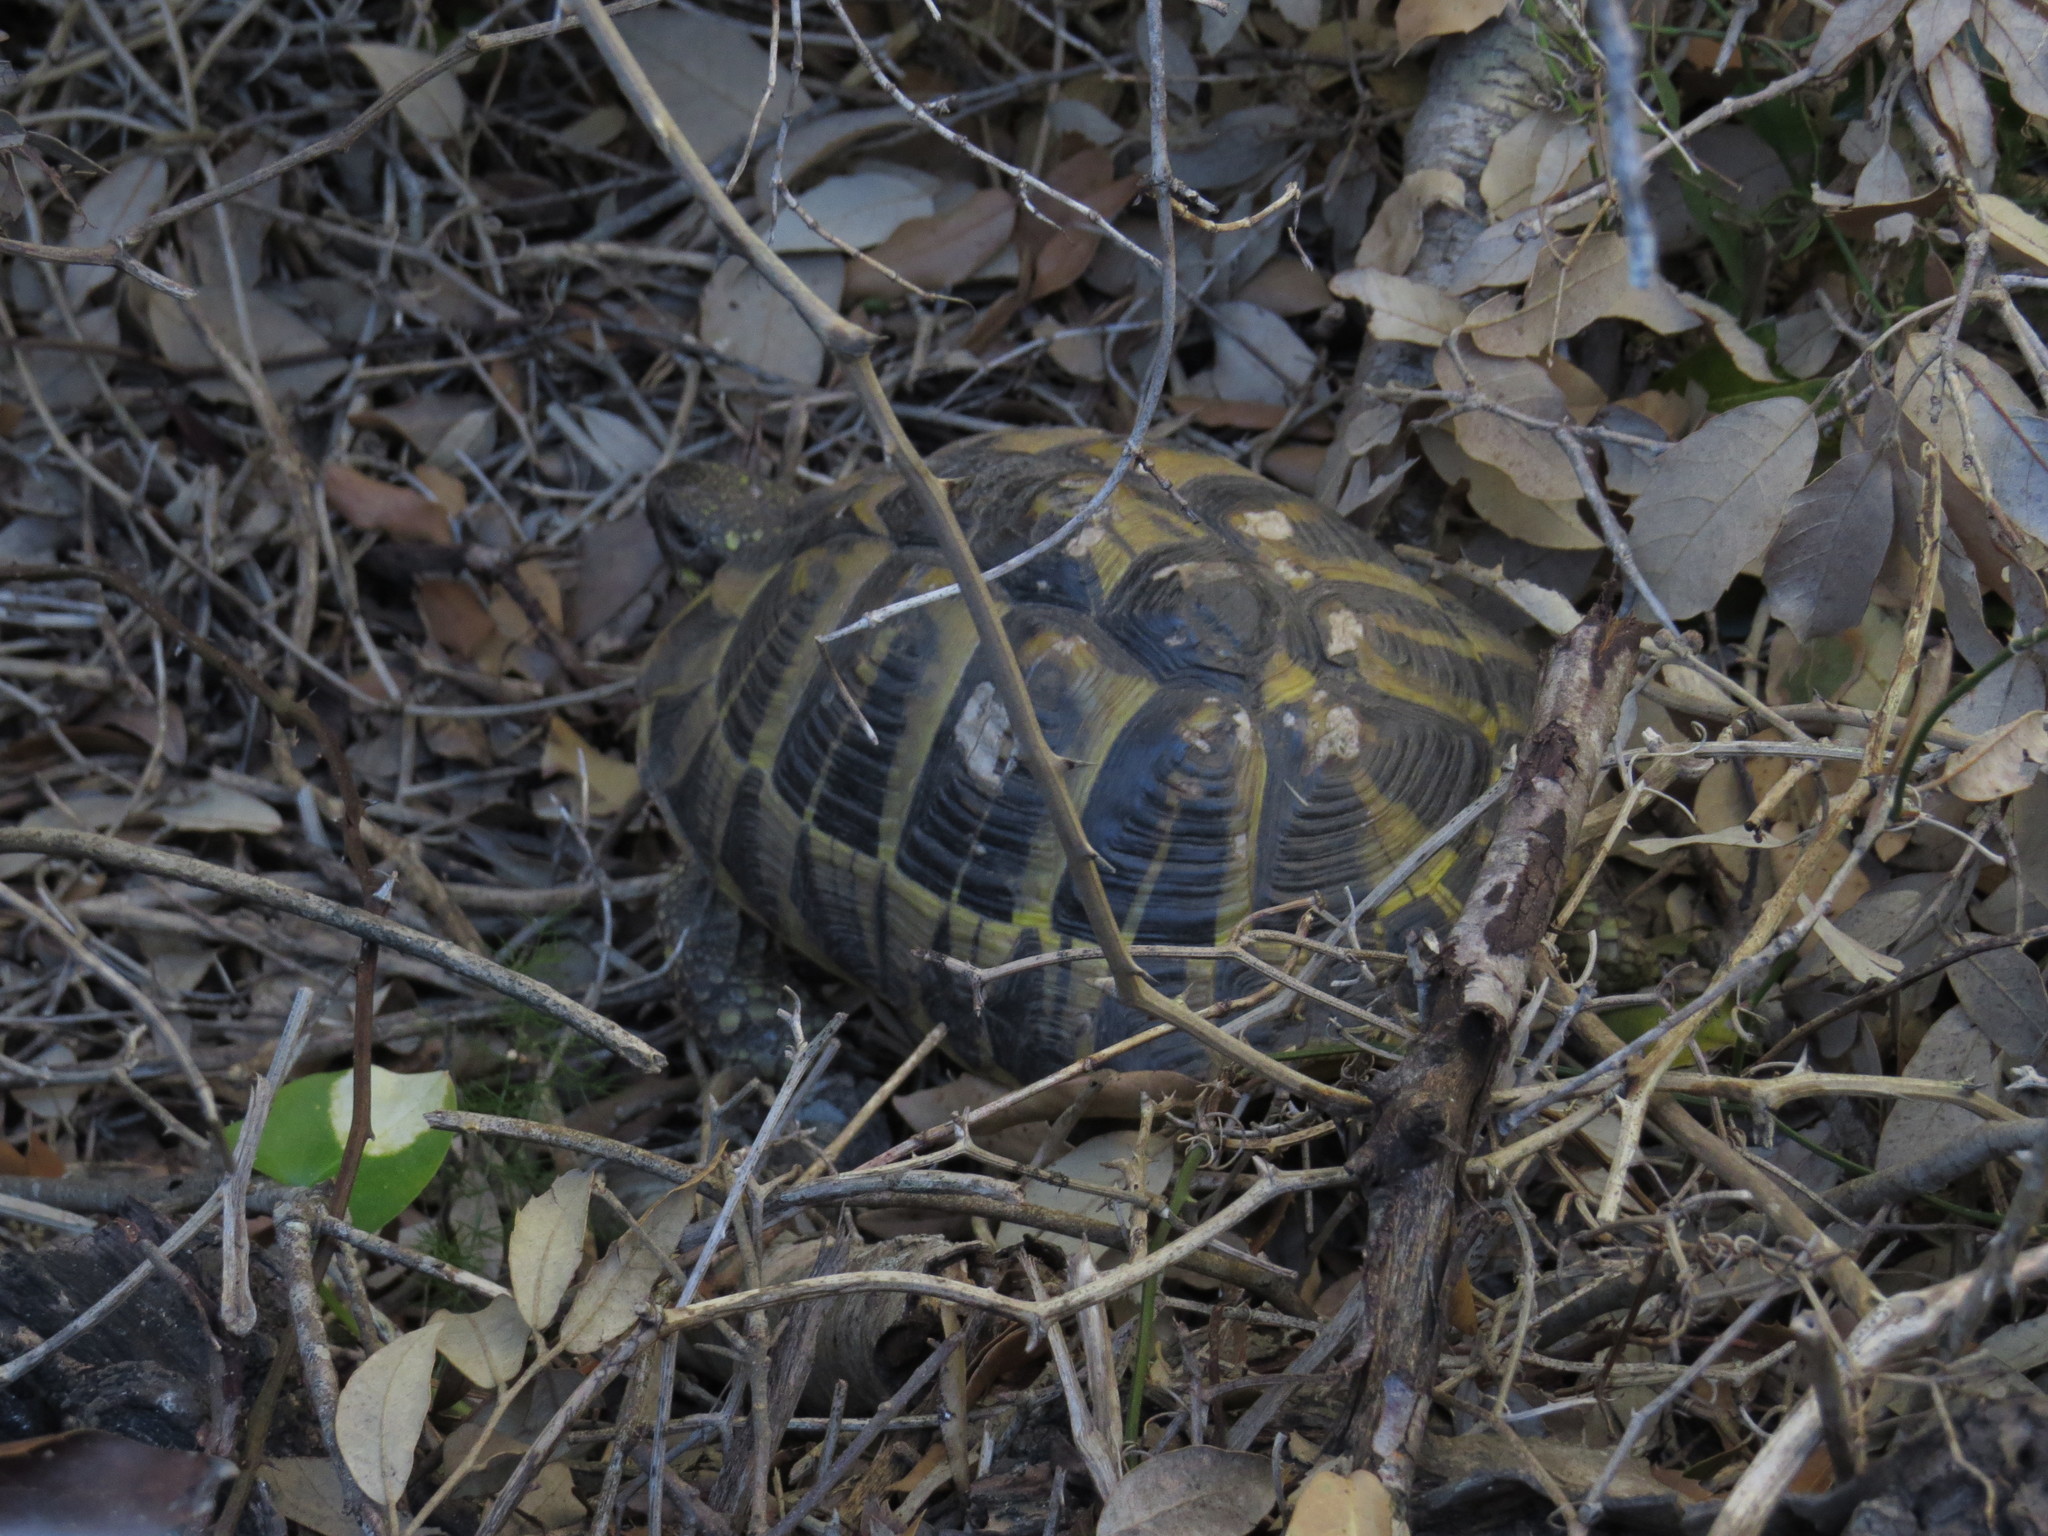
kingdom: Animalia
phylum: Chordata
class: Testudines
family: Testudinidae
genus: Testudo
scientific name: Testudo hermanni
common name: Hermann's tortoise
